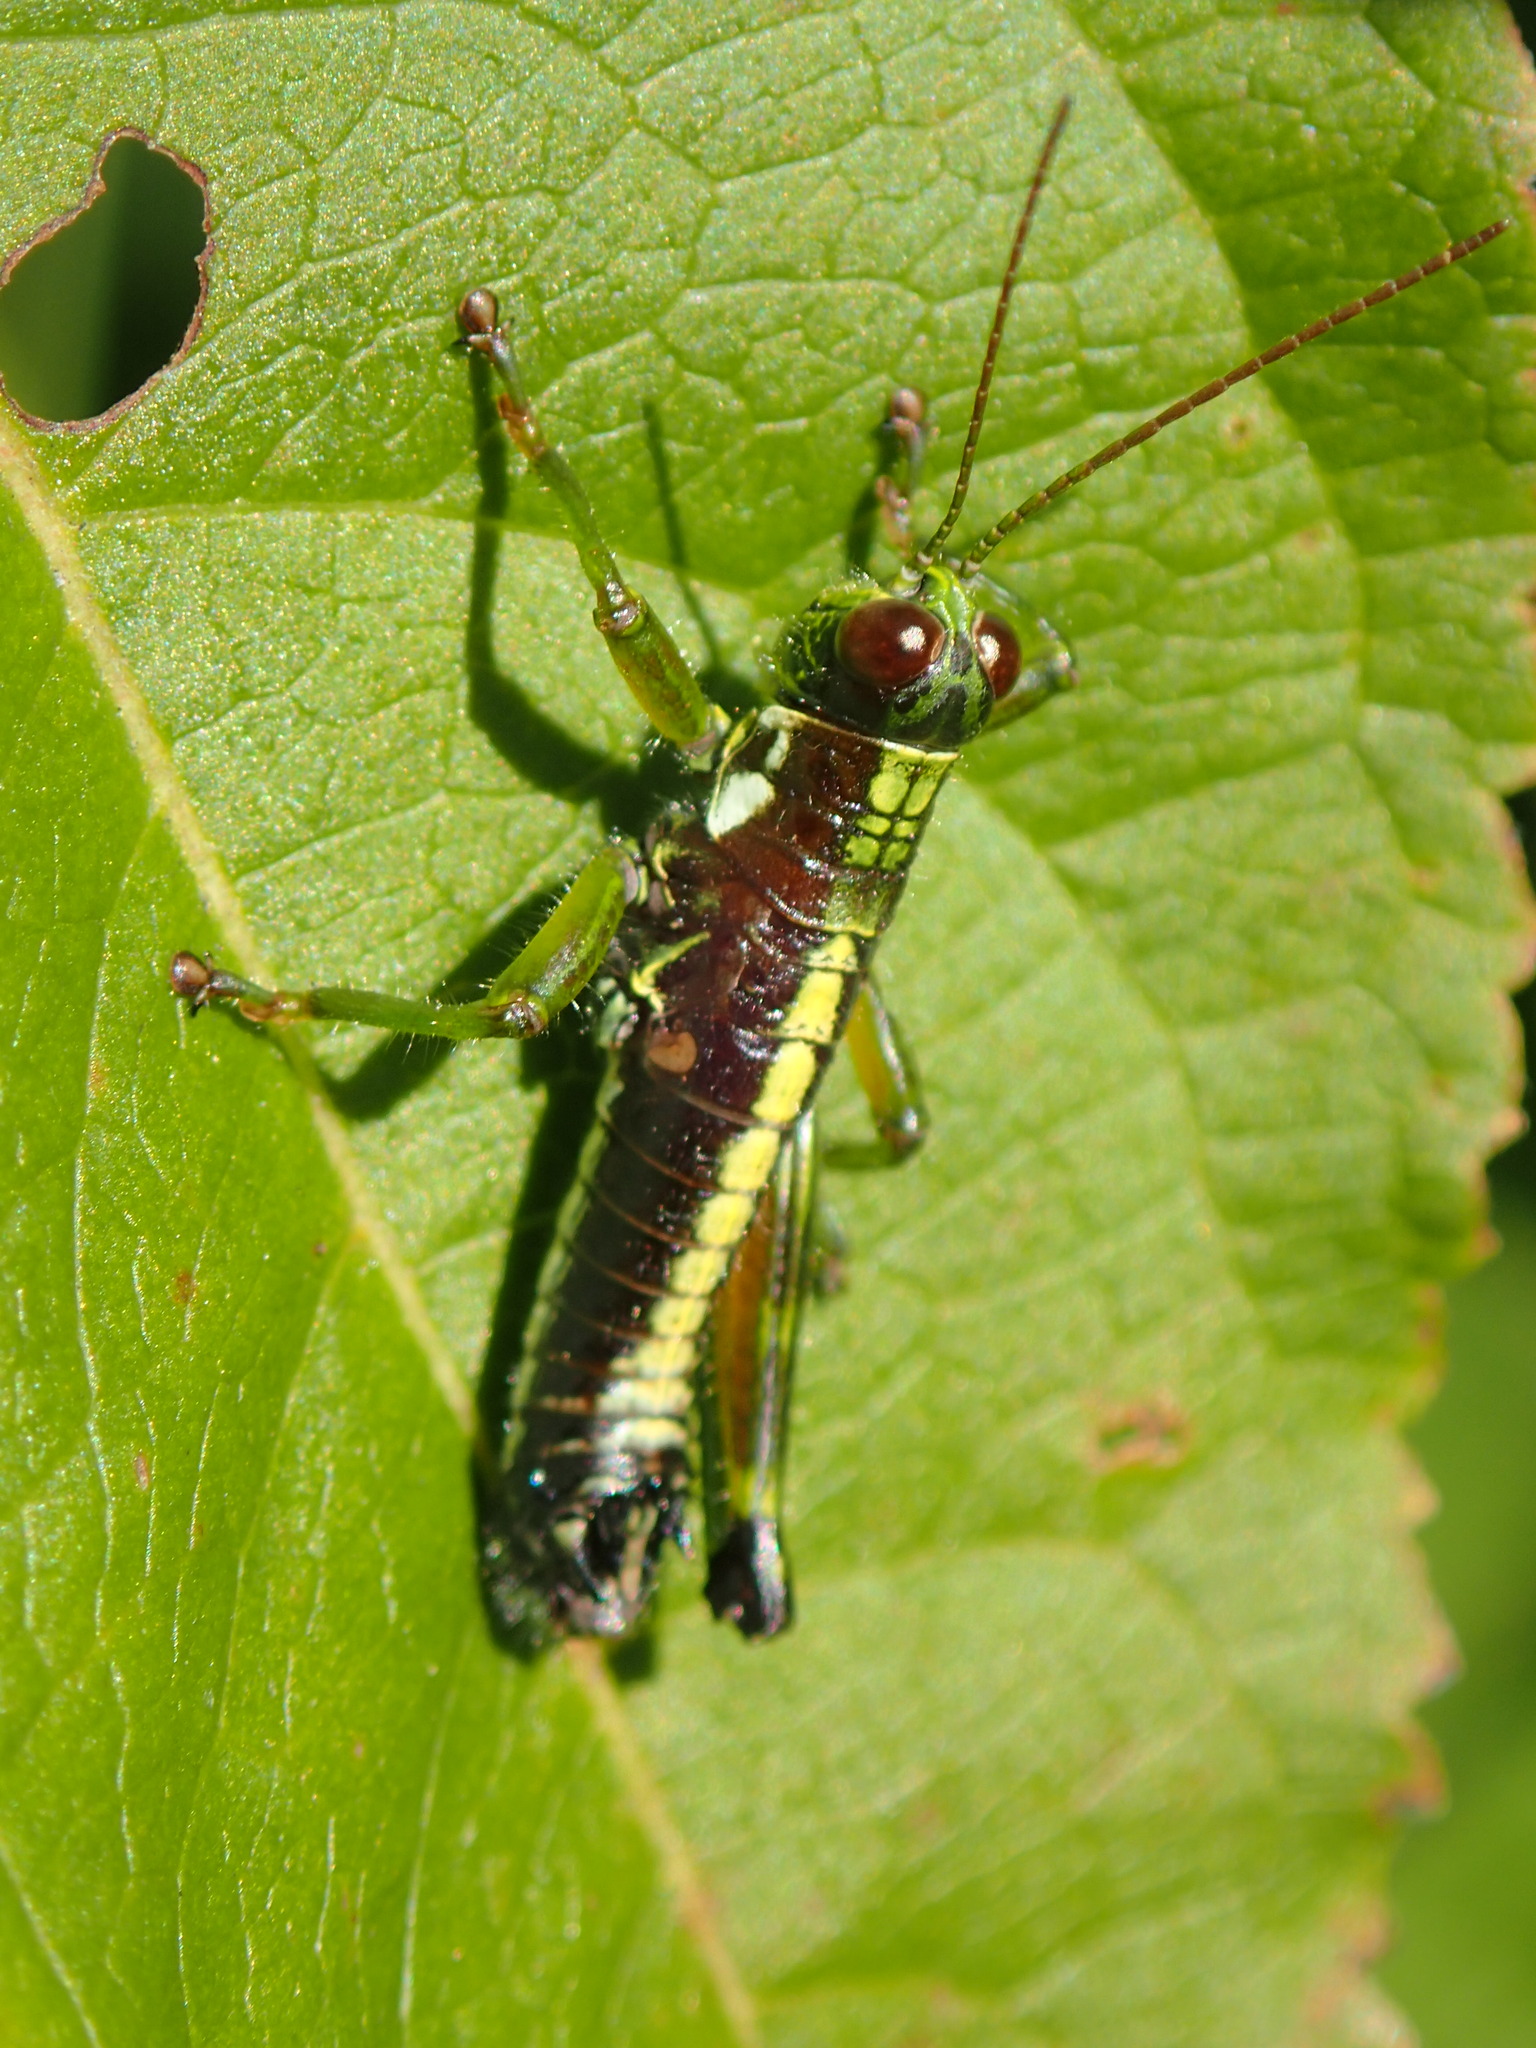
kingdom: Animalia
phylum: Arthropoda
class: Insecta
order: Orthoptera
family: Acrididae
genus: Booneacris
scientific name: Booneacris glacialis
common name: Wingless mountain grasshopper
